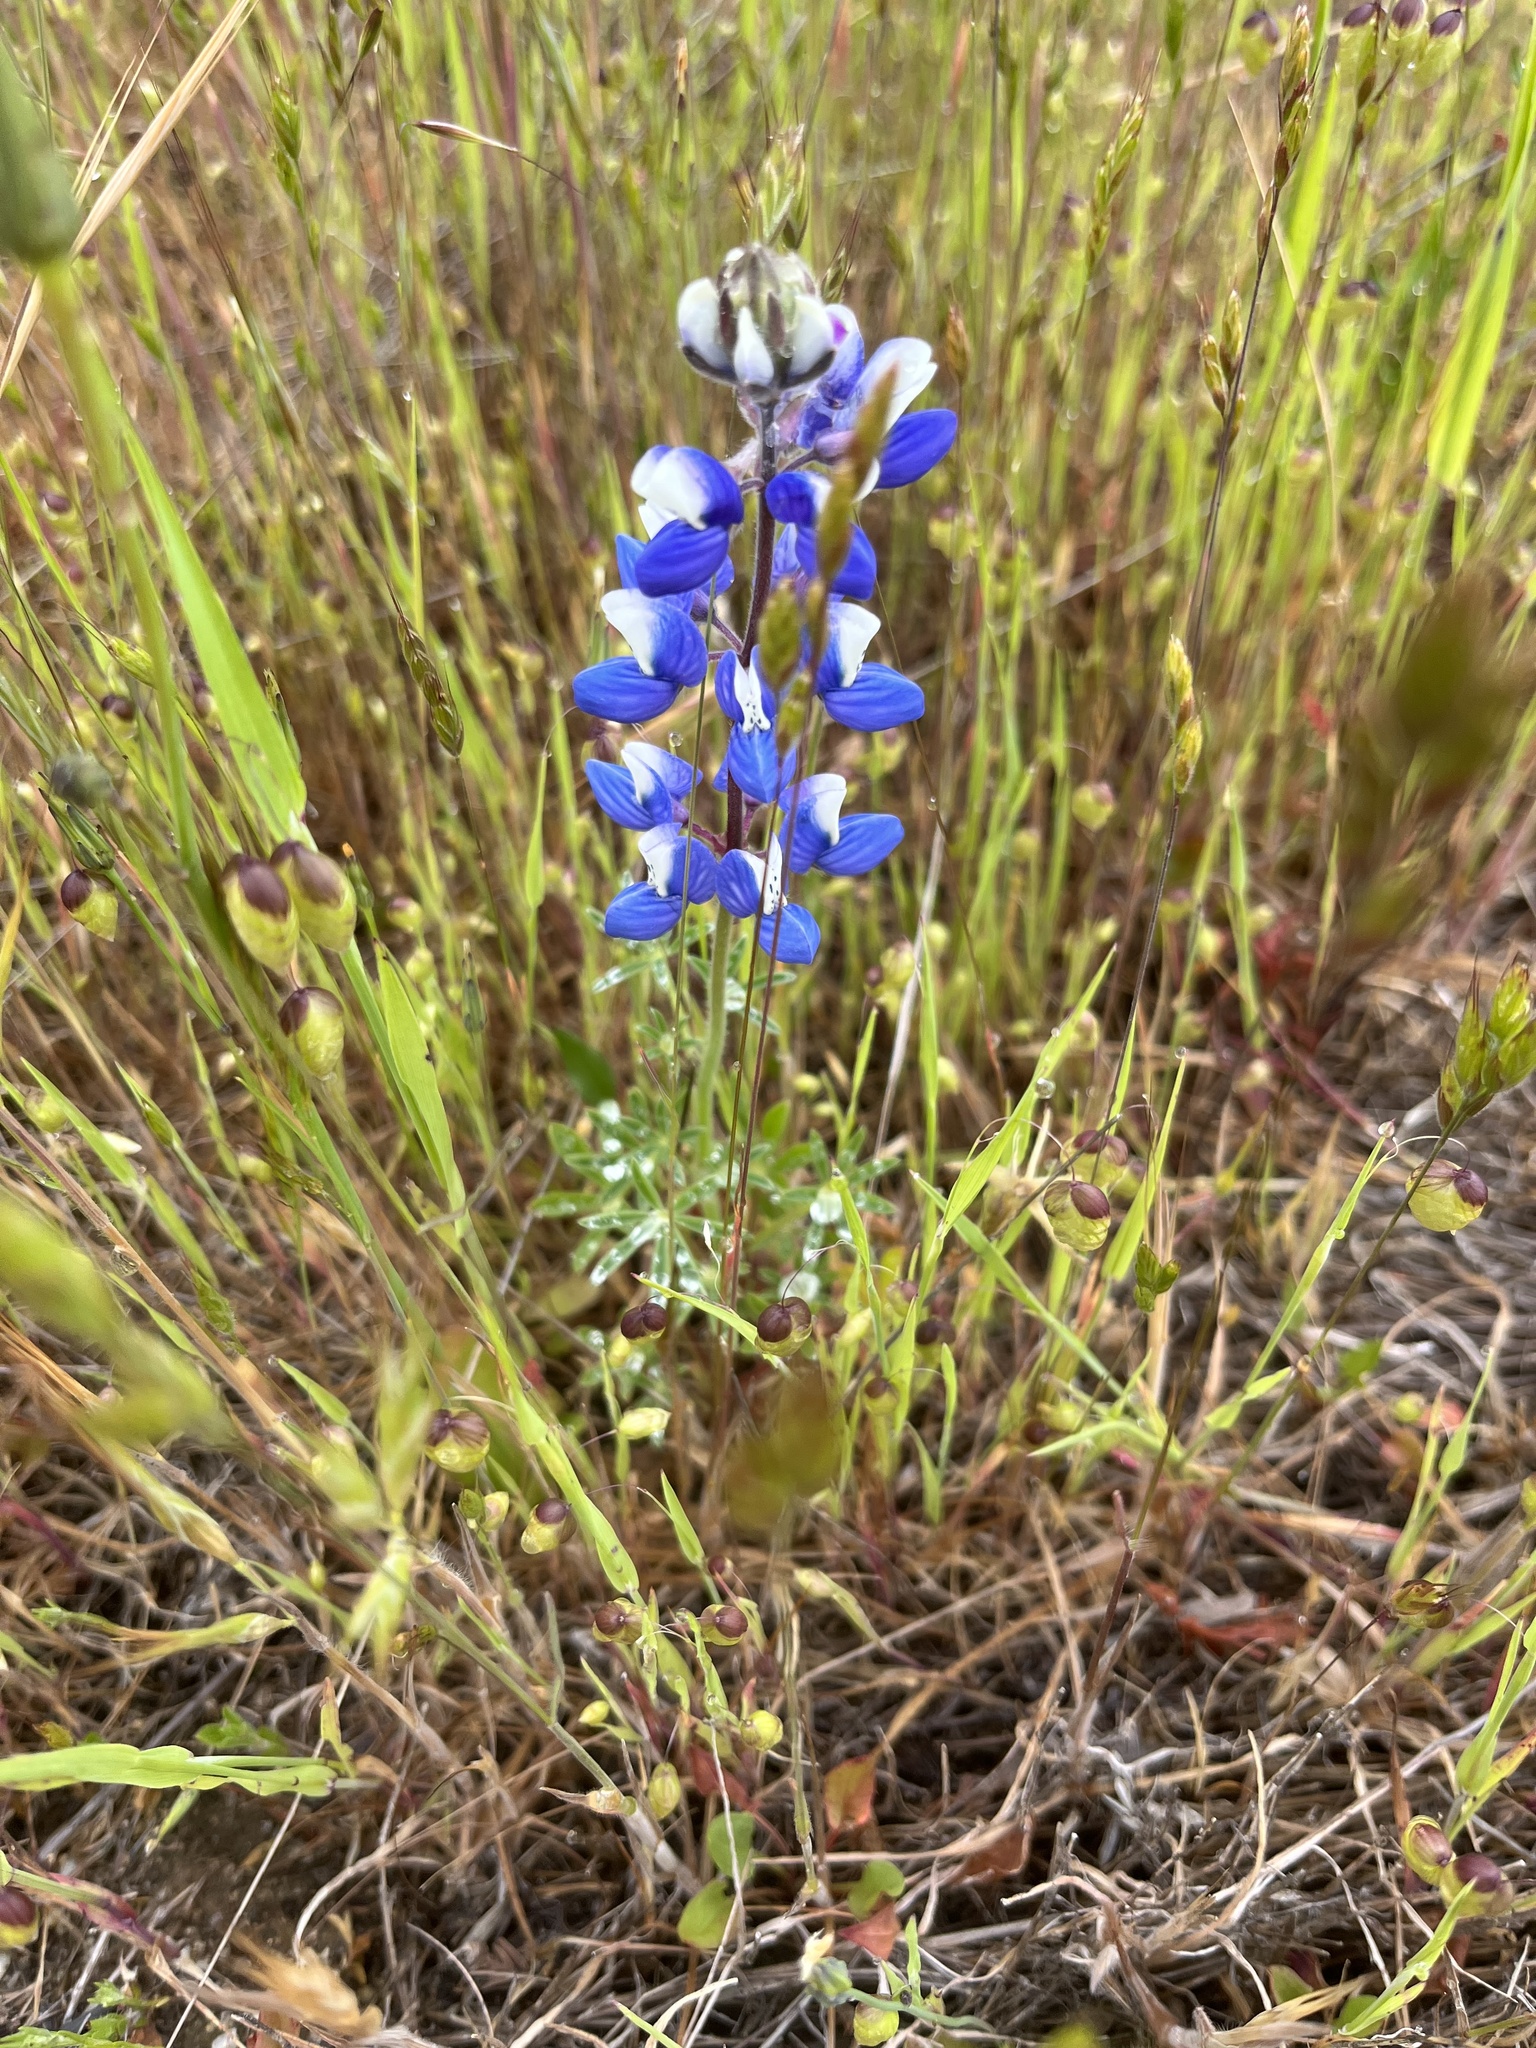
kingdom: Plantae
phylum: Tracheophyta
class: Magnoliopsida
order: Fabales
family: Fabaceae
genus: Lupinus
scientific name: Lupinus nanus
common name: Orean blue lupin
